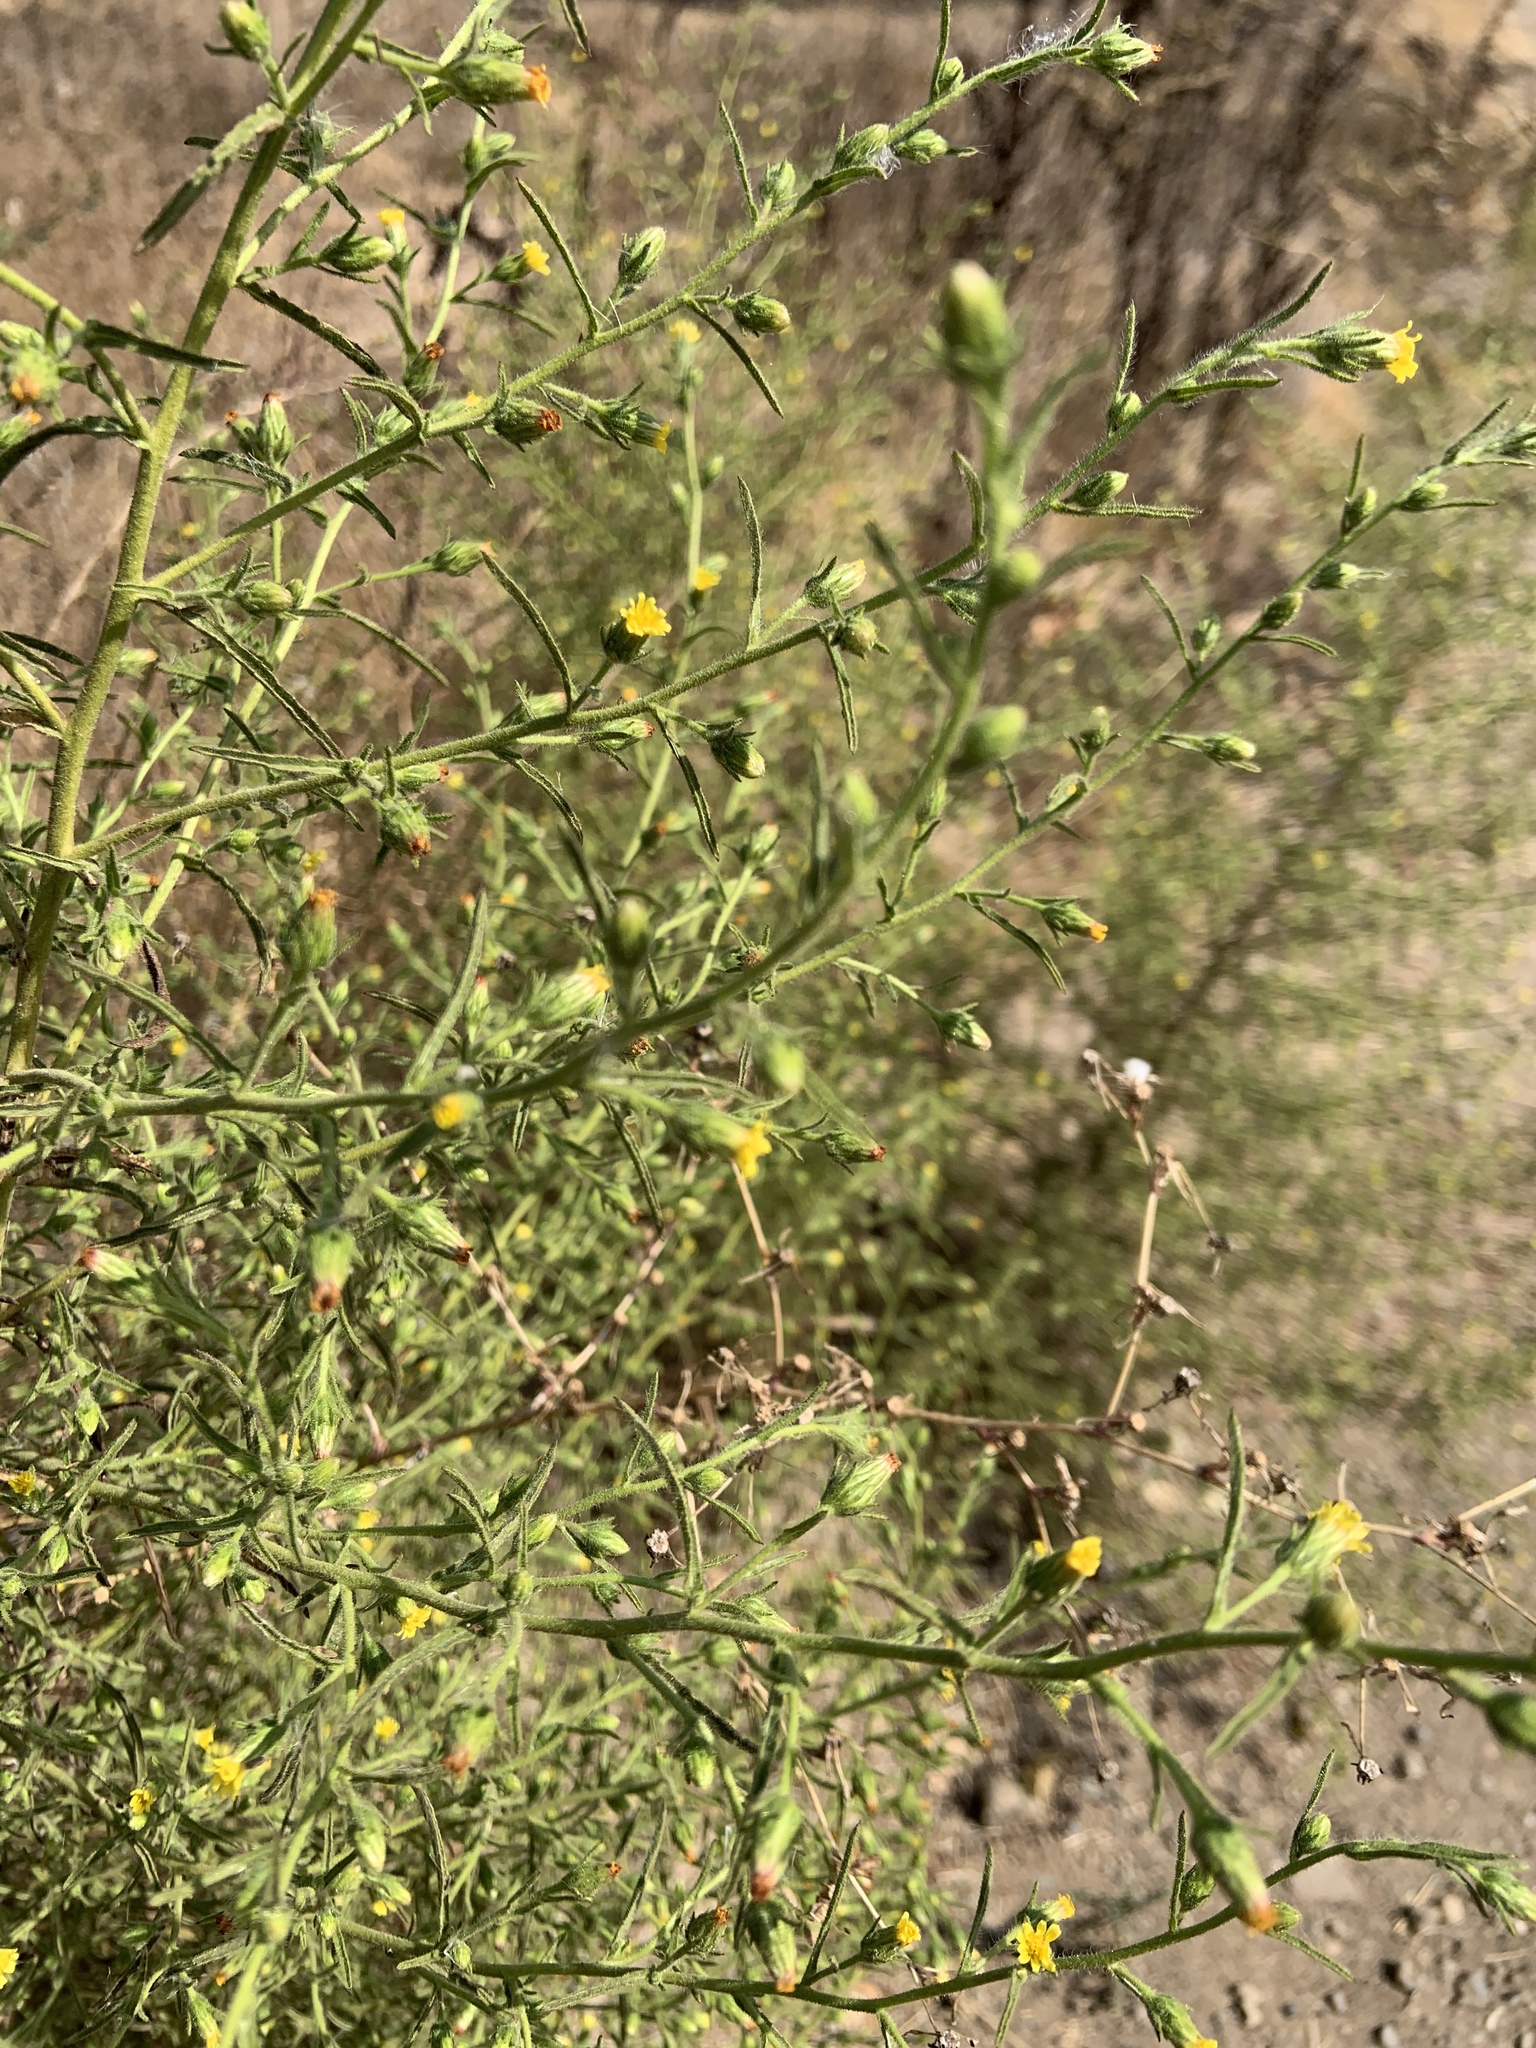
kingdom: Plantae
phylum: Tracheophyta
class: Magnoliopsida
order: Asterales
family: Asteraceae
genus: Dittrichia
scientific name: Dittrichia graveolens
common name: Stinking fleabane
